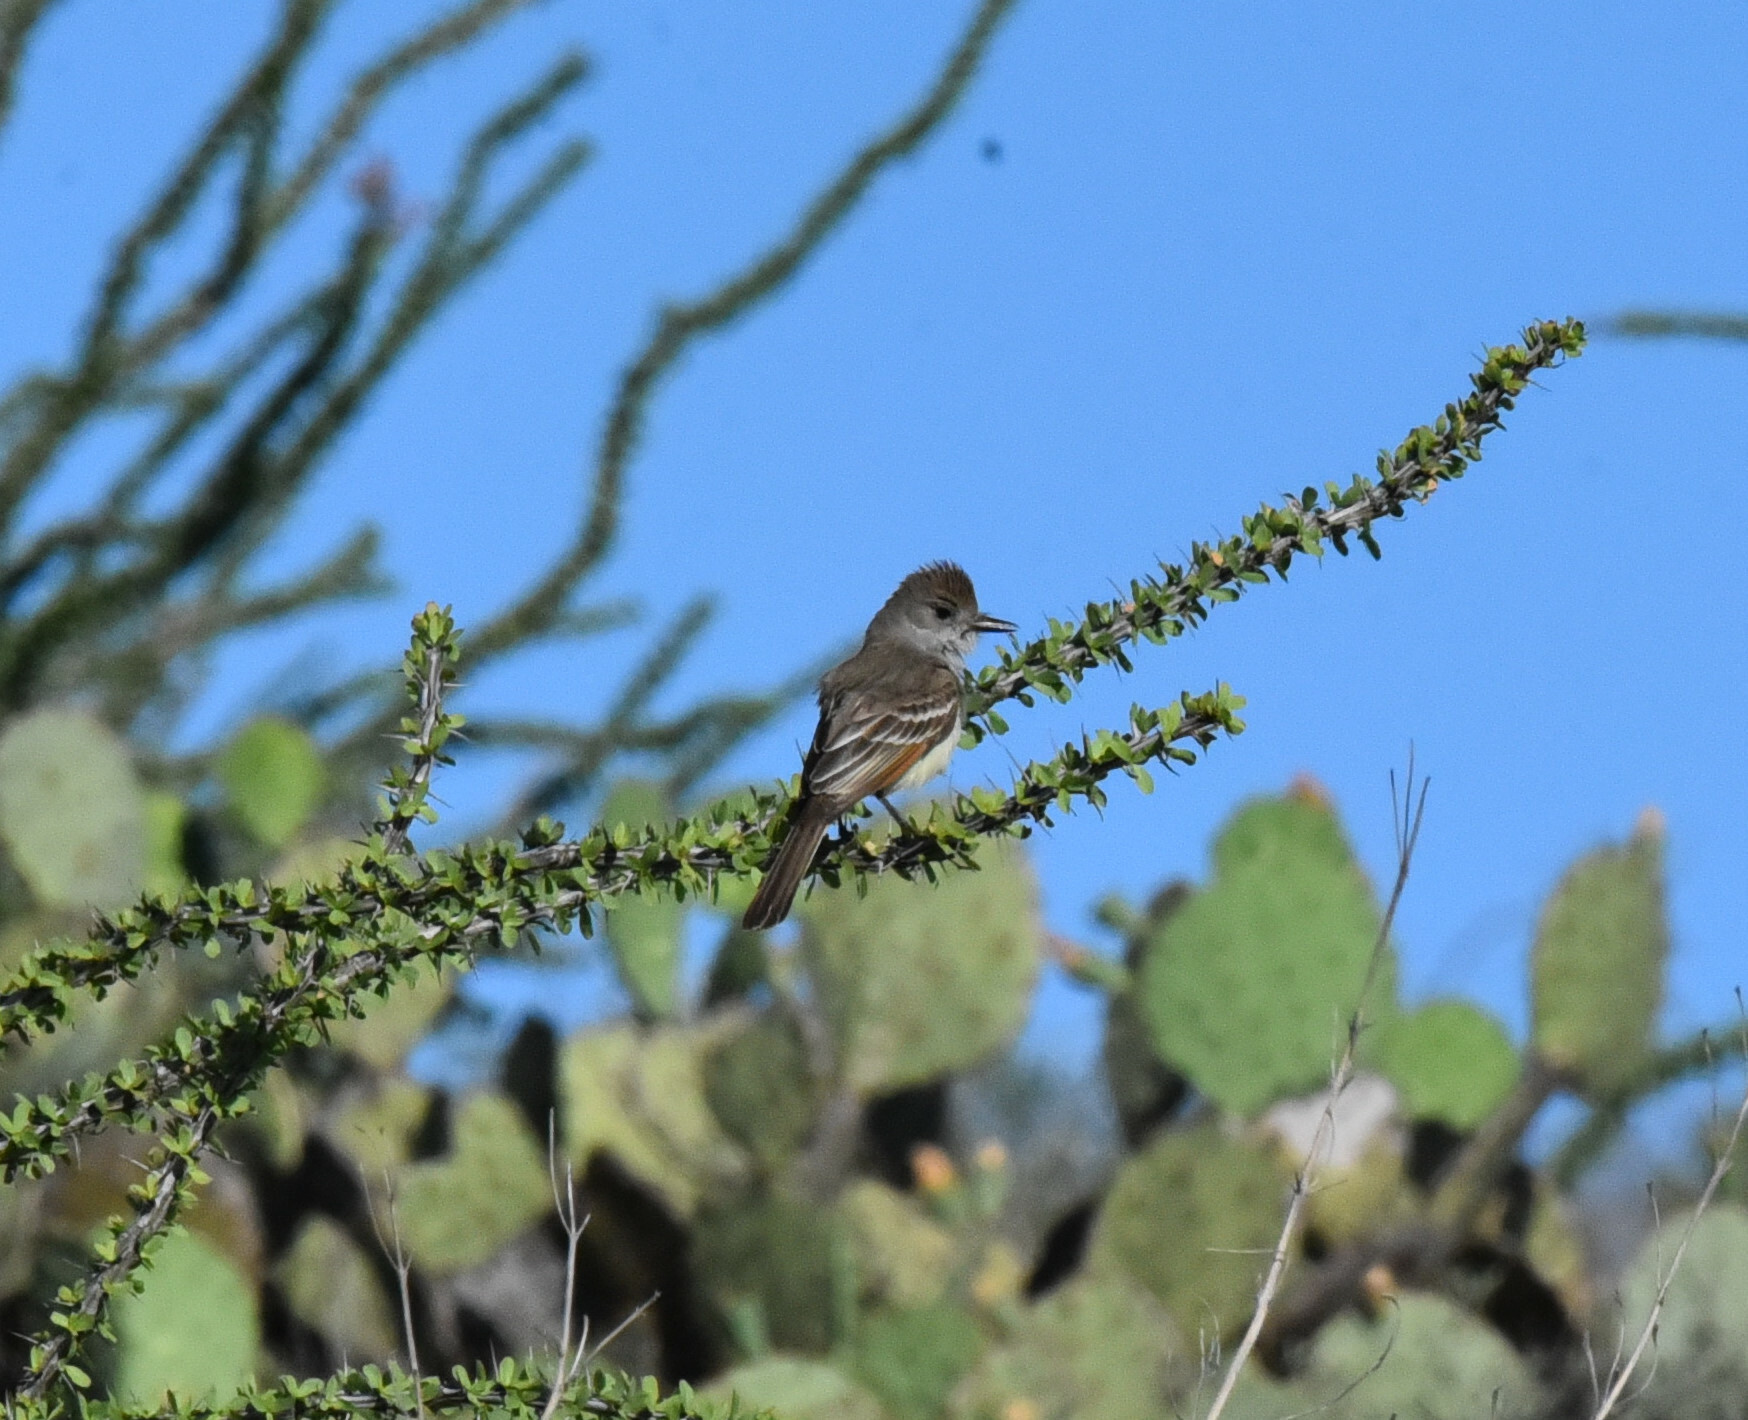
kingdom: Animalia
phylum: Chordata
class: Aves
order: Passeriformes
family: Tyrannidae
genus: Myiarchus
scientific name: Myiarchus cinerascens
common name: Ash-throated flycatcher
